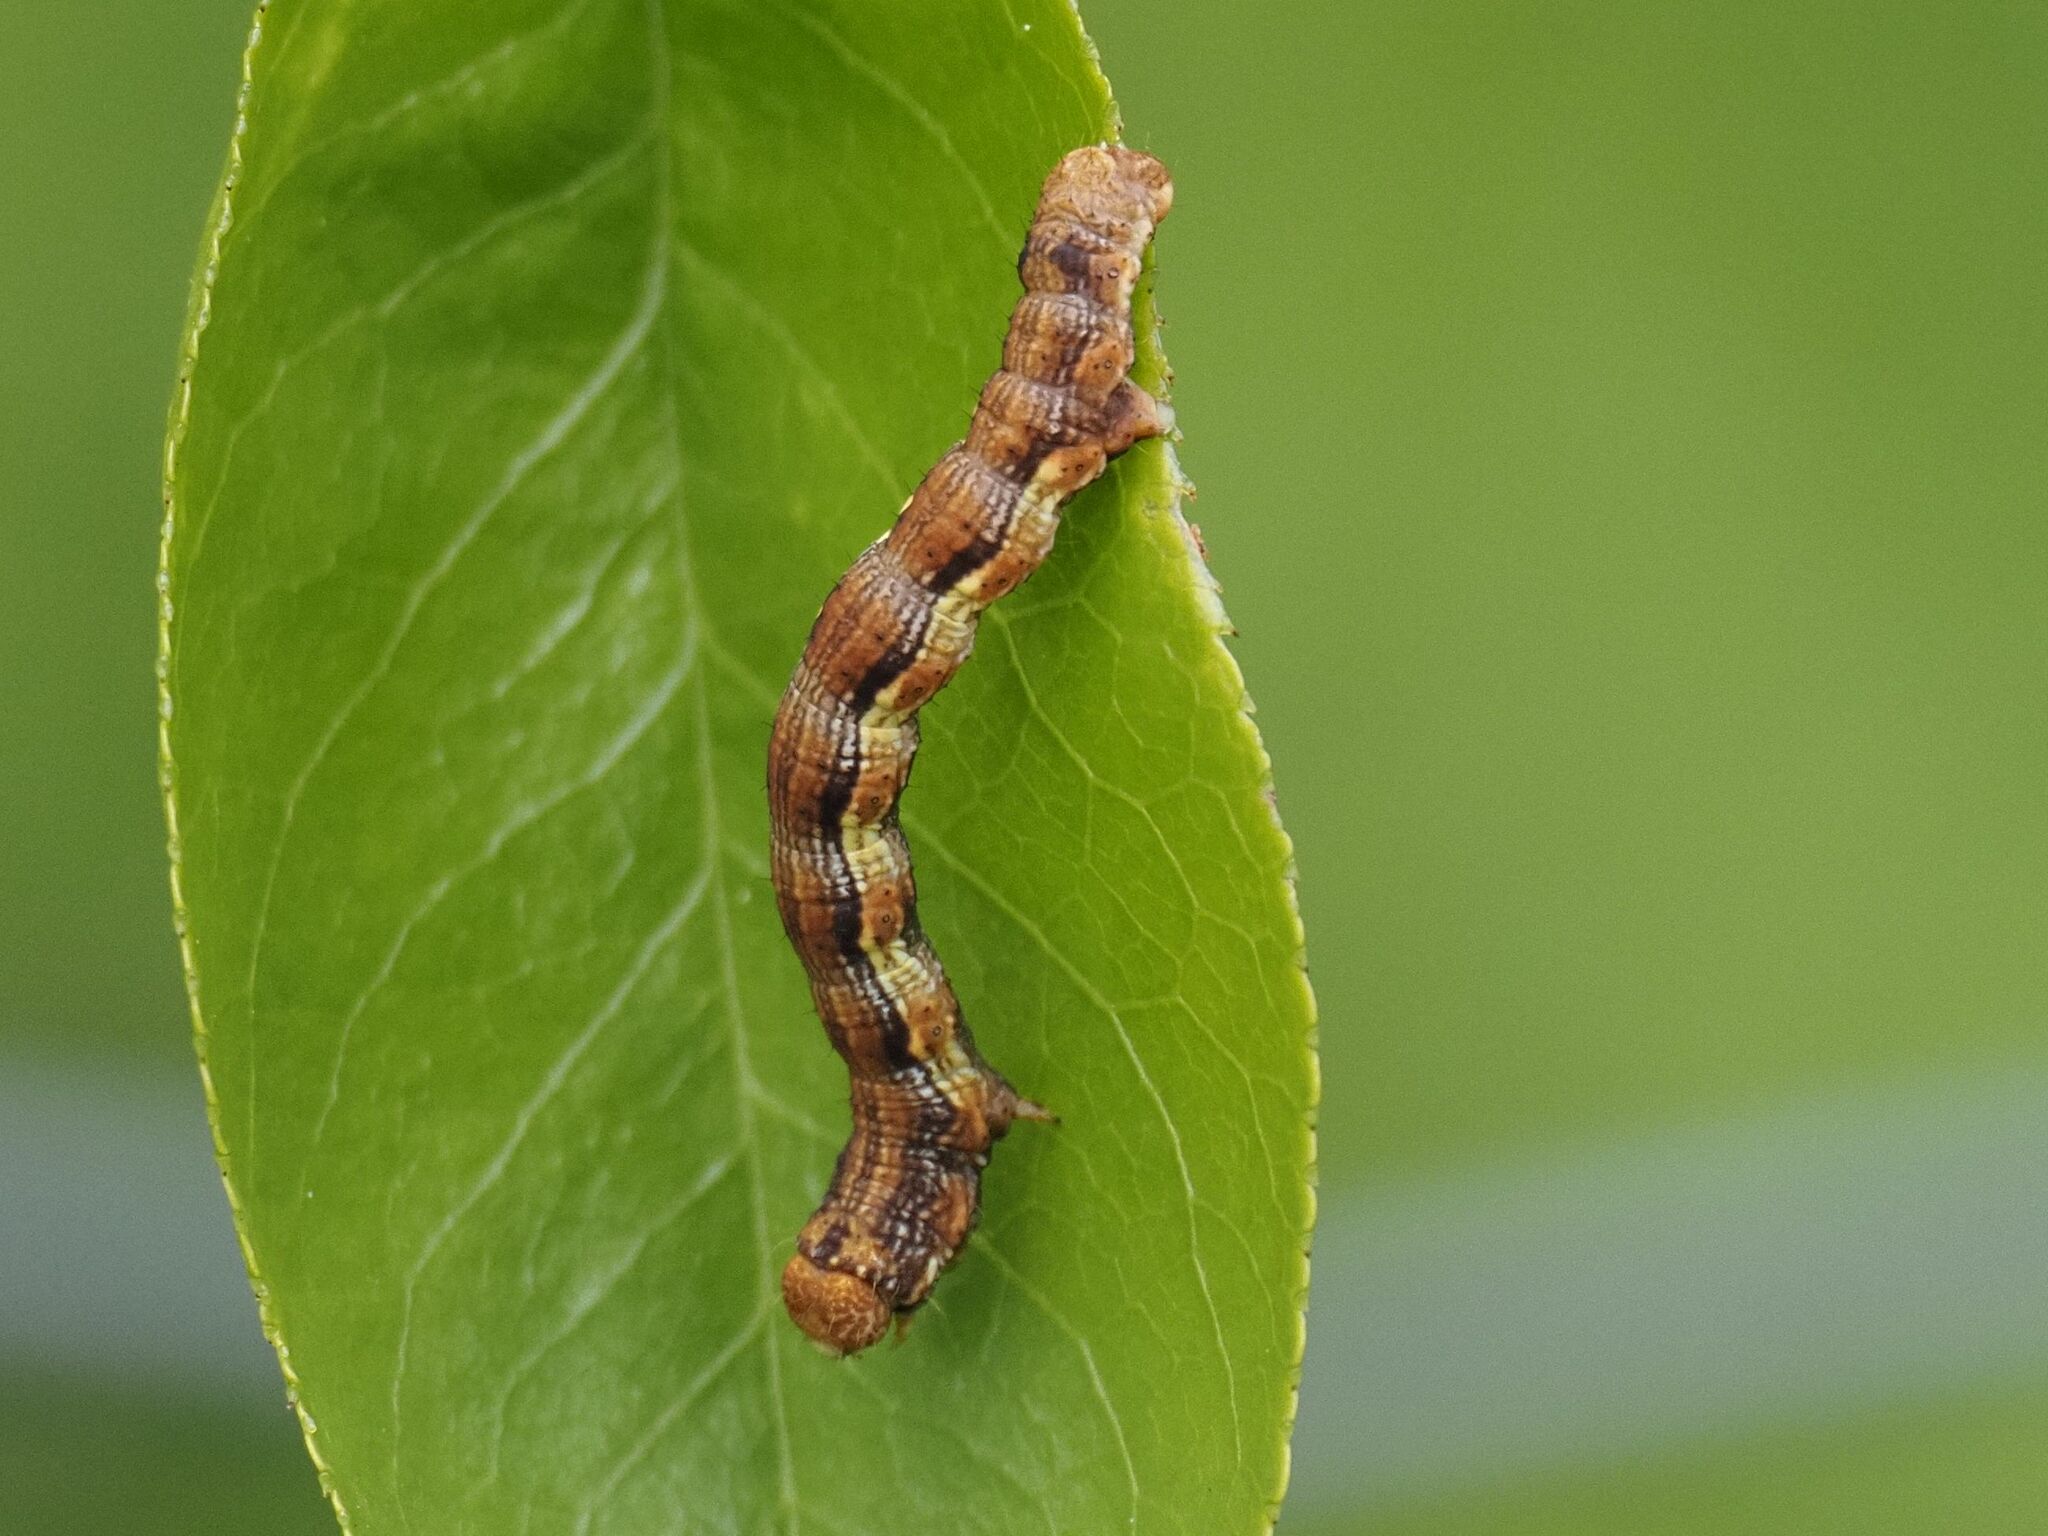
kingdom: Animalia
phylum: Arthropoda
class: Insecta
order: Lepidoptera
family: Geometridae
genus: Erannis
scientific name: Erannis defoliaria
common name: Mottled umber
